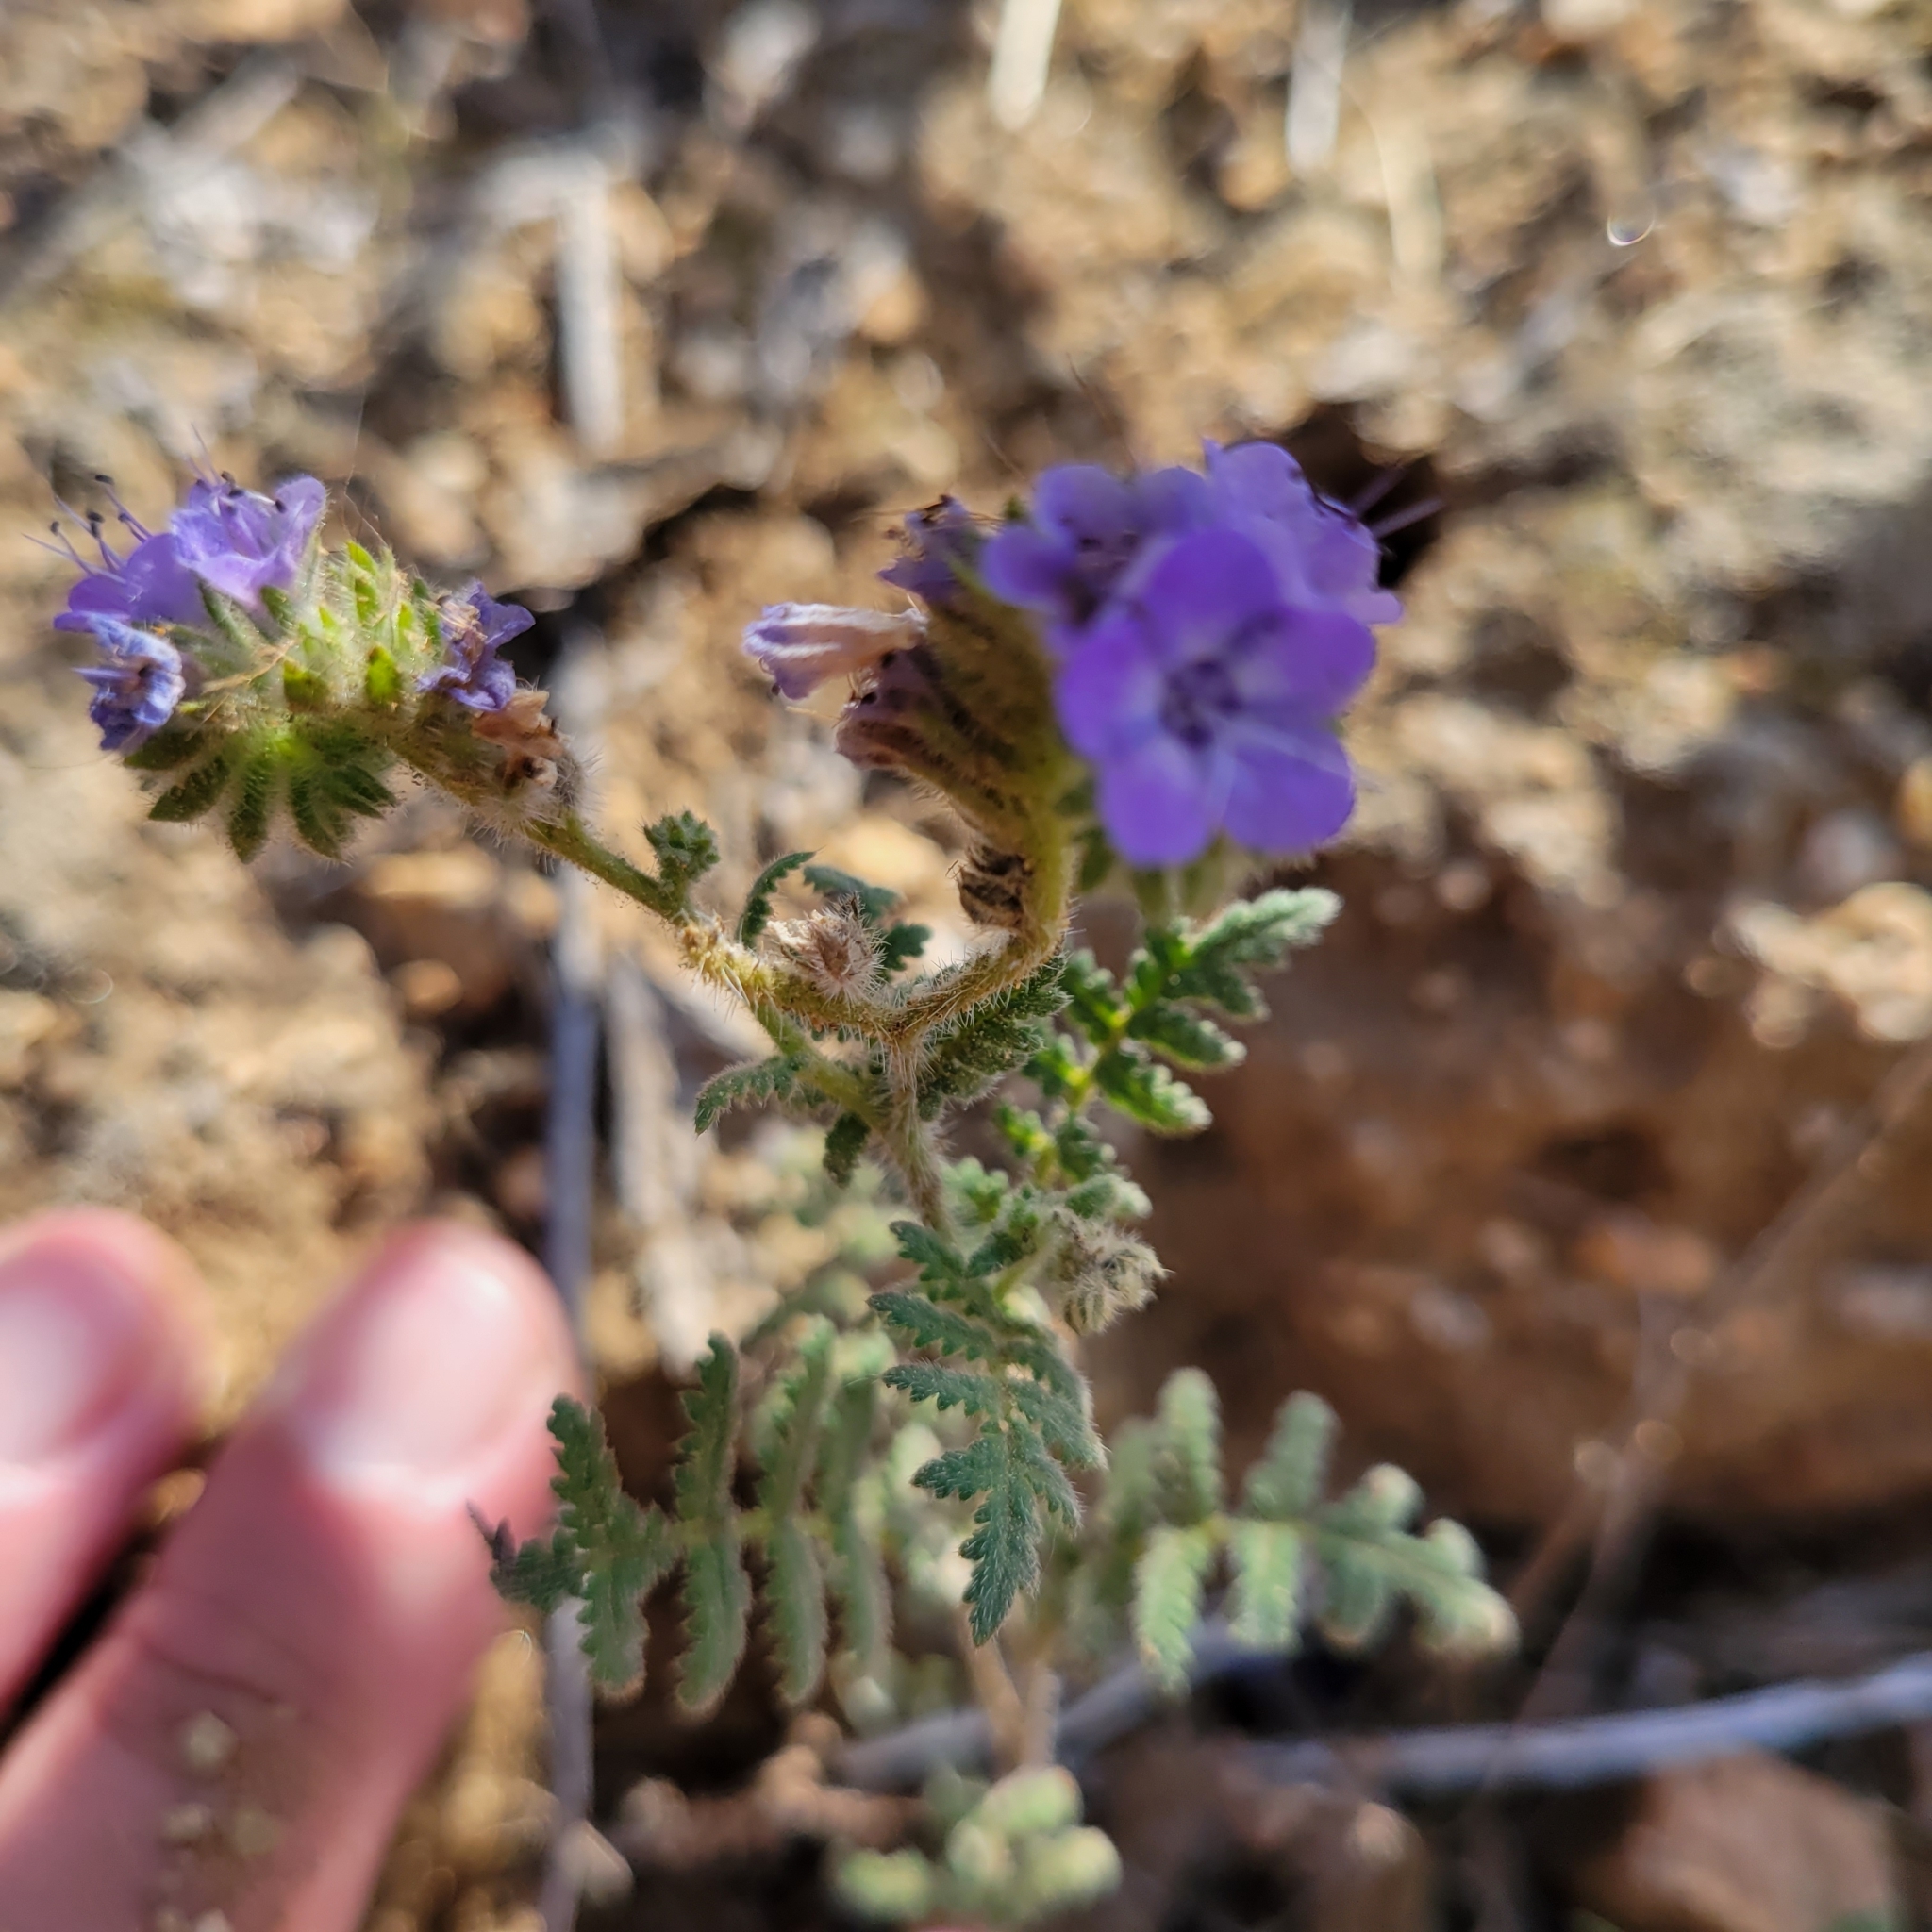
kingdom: Plantae
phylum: Tracheophyta
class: Magnoliopsida
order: Boraginales
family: Hydrophyllaceae
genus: Phacelia
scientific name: Phacelia distans
